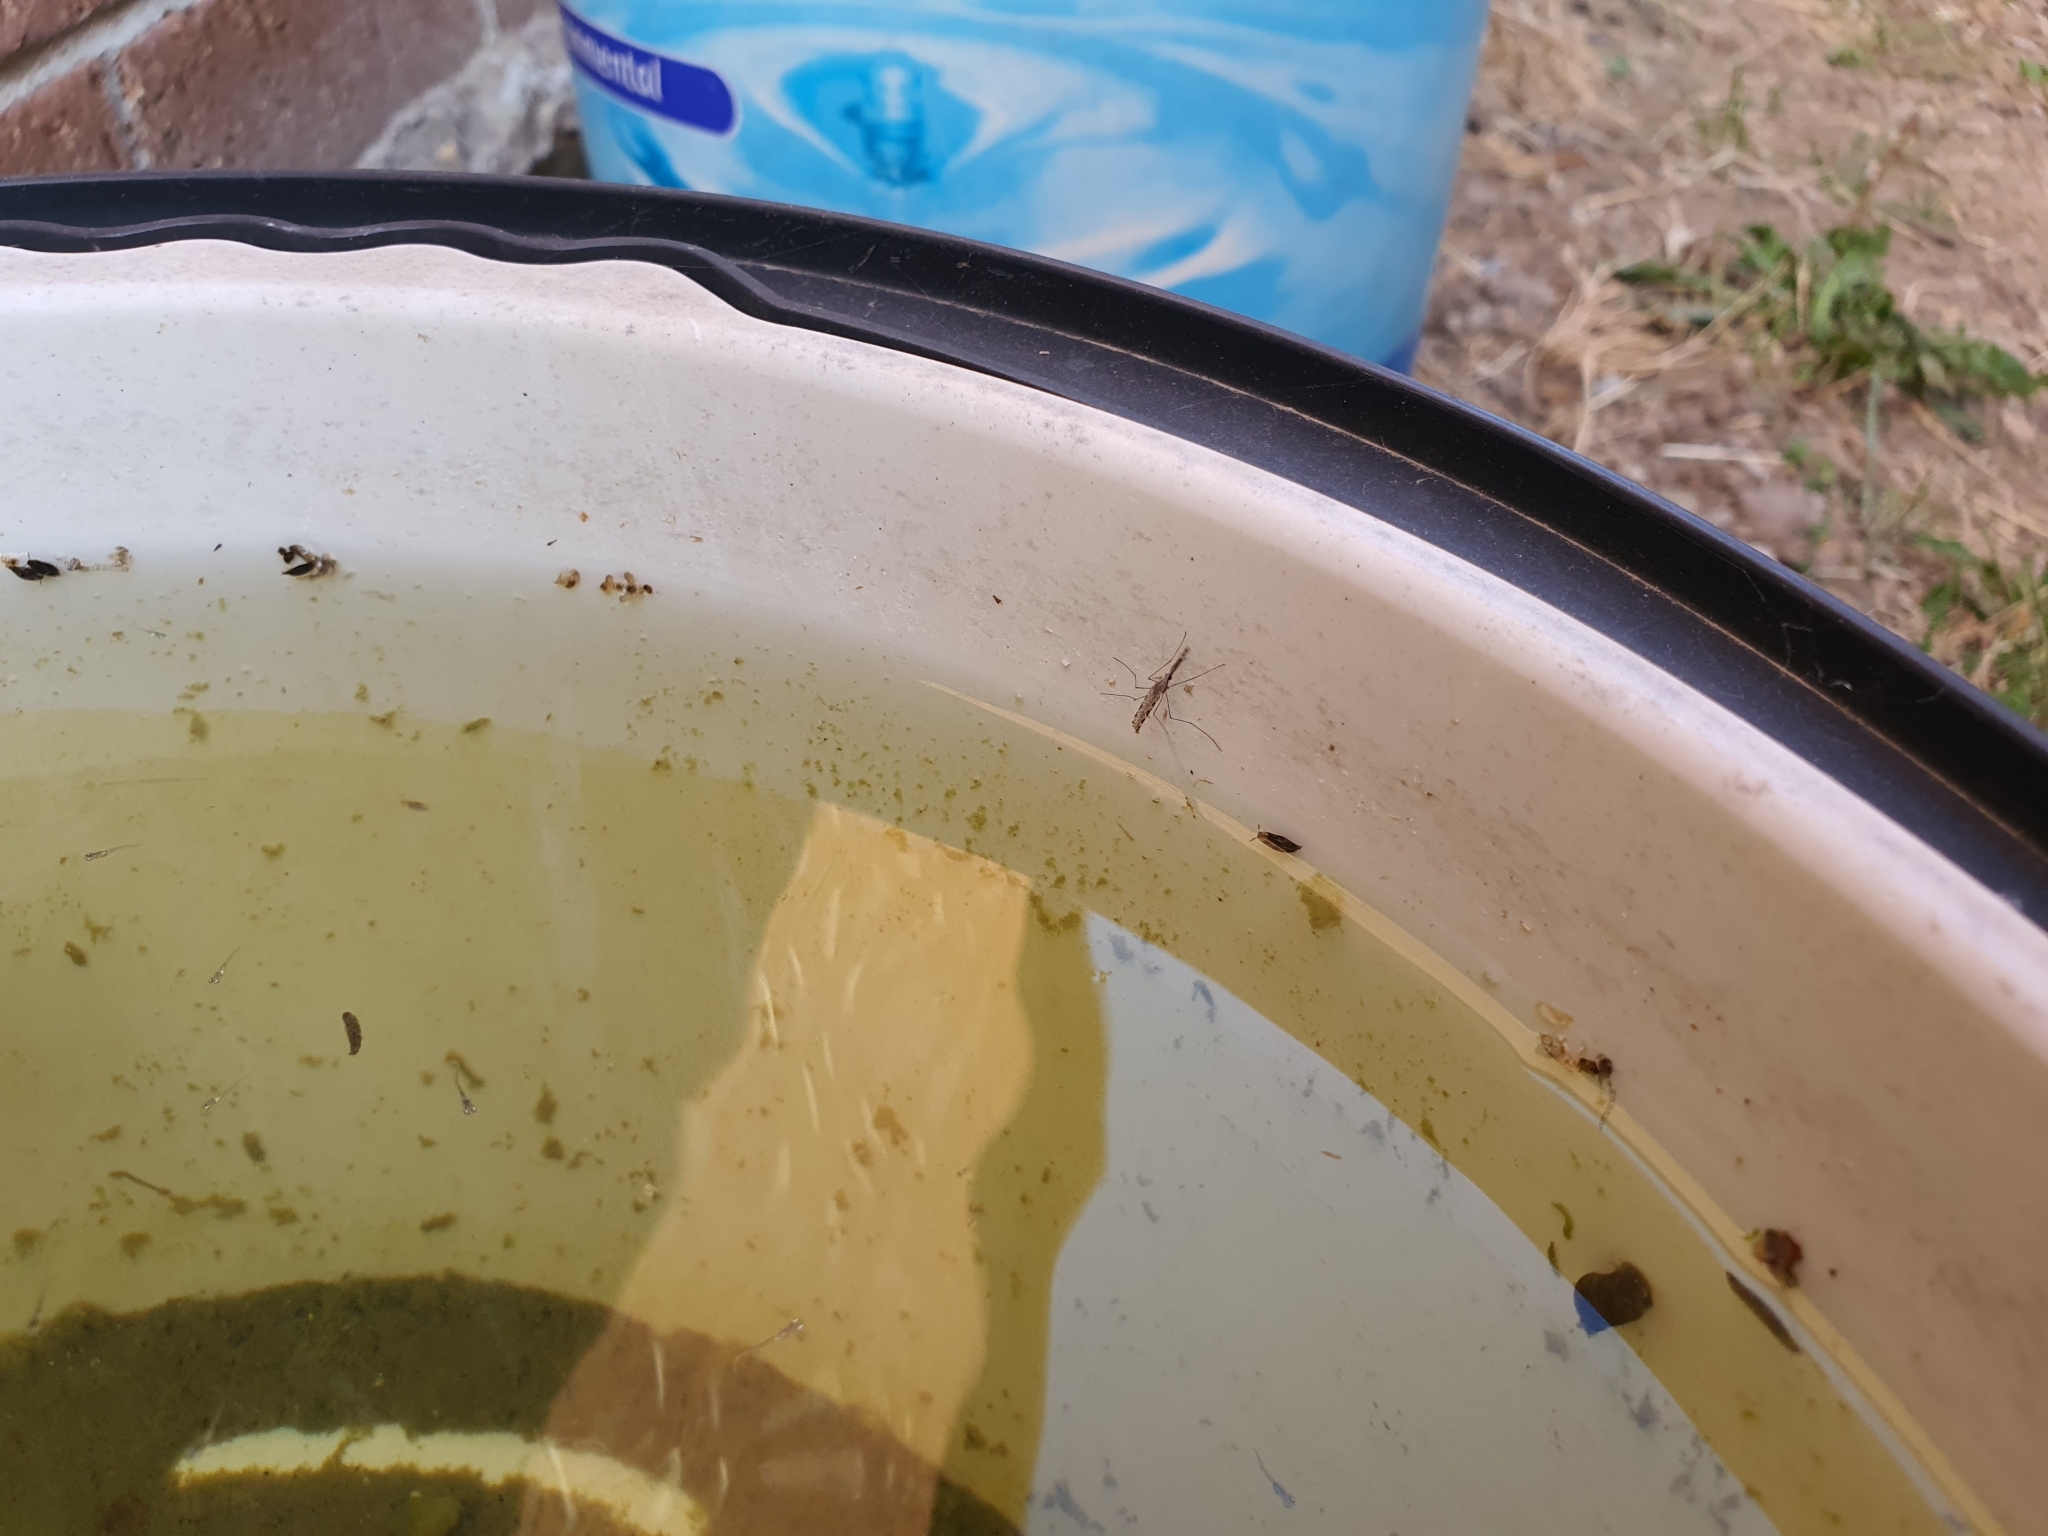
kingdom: Animalia
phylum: Arthropoda
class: Insecta
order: Diptera
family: Culicidae
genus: Anopheles
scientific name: Anopheles annulipes
